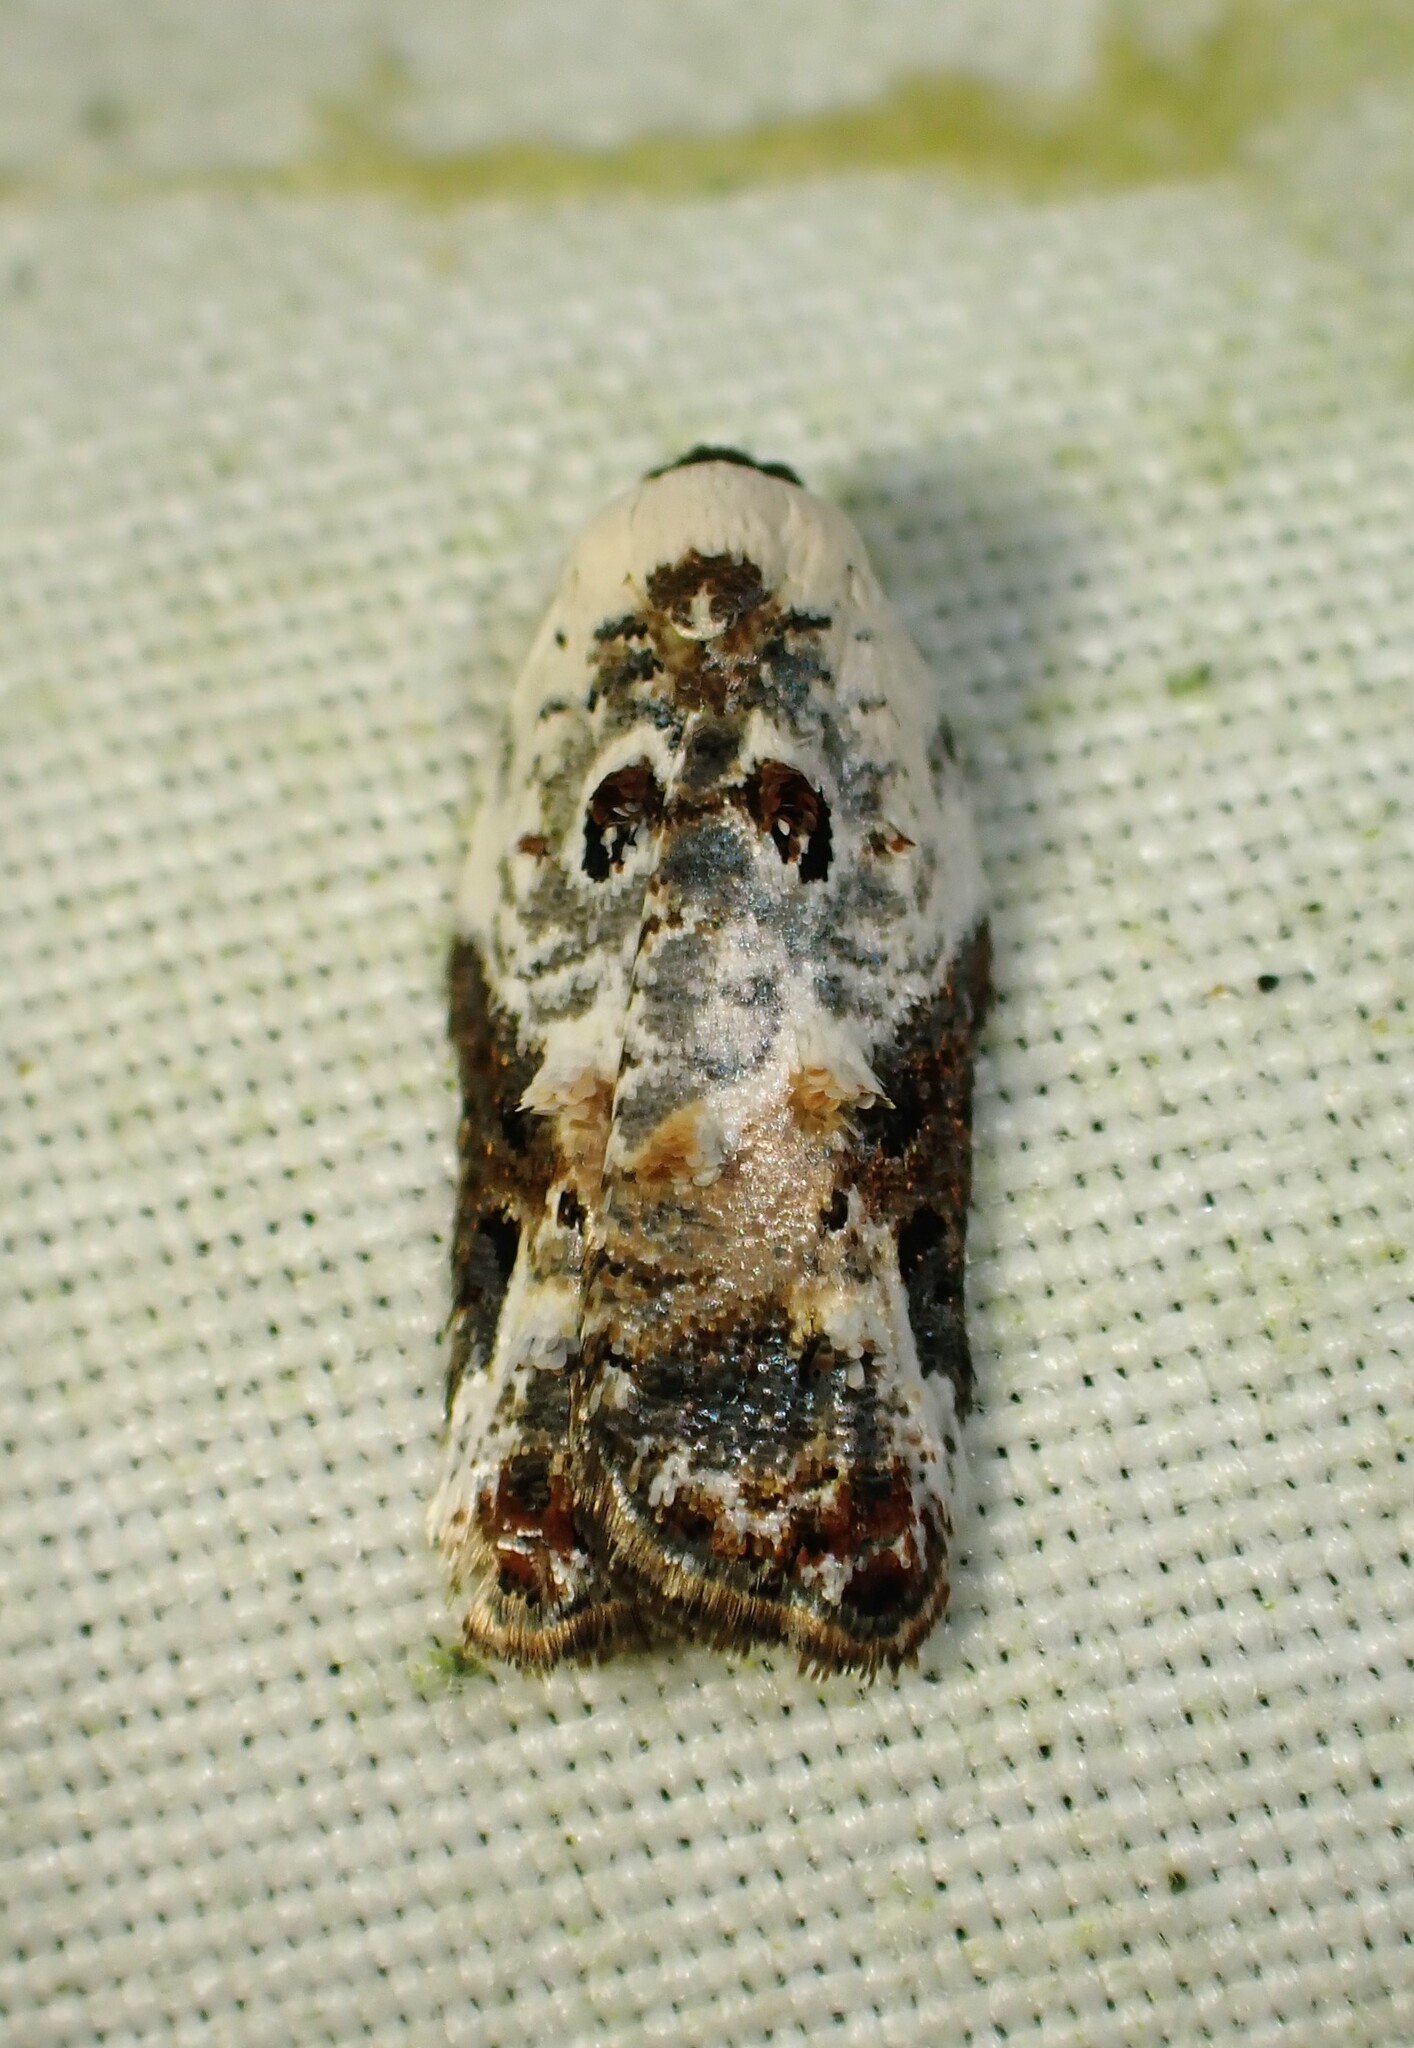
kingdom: Animalia
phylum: Arthropoda
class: Insecta
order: Lepidoptera
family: Tortricidae
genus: Acleris
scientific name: Acleris nivisellana
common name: Snowy-shouldered acleris moth
